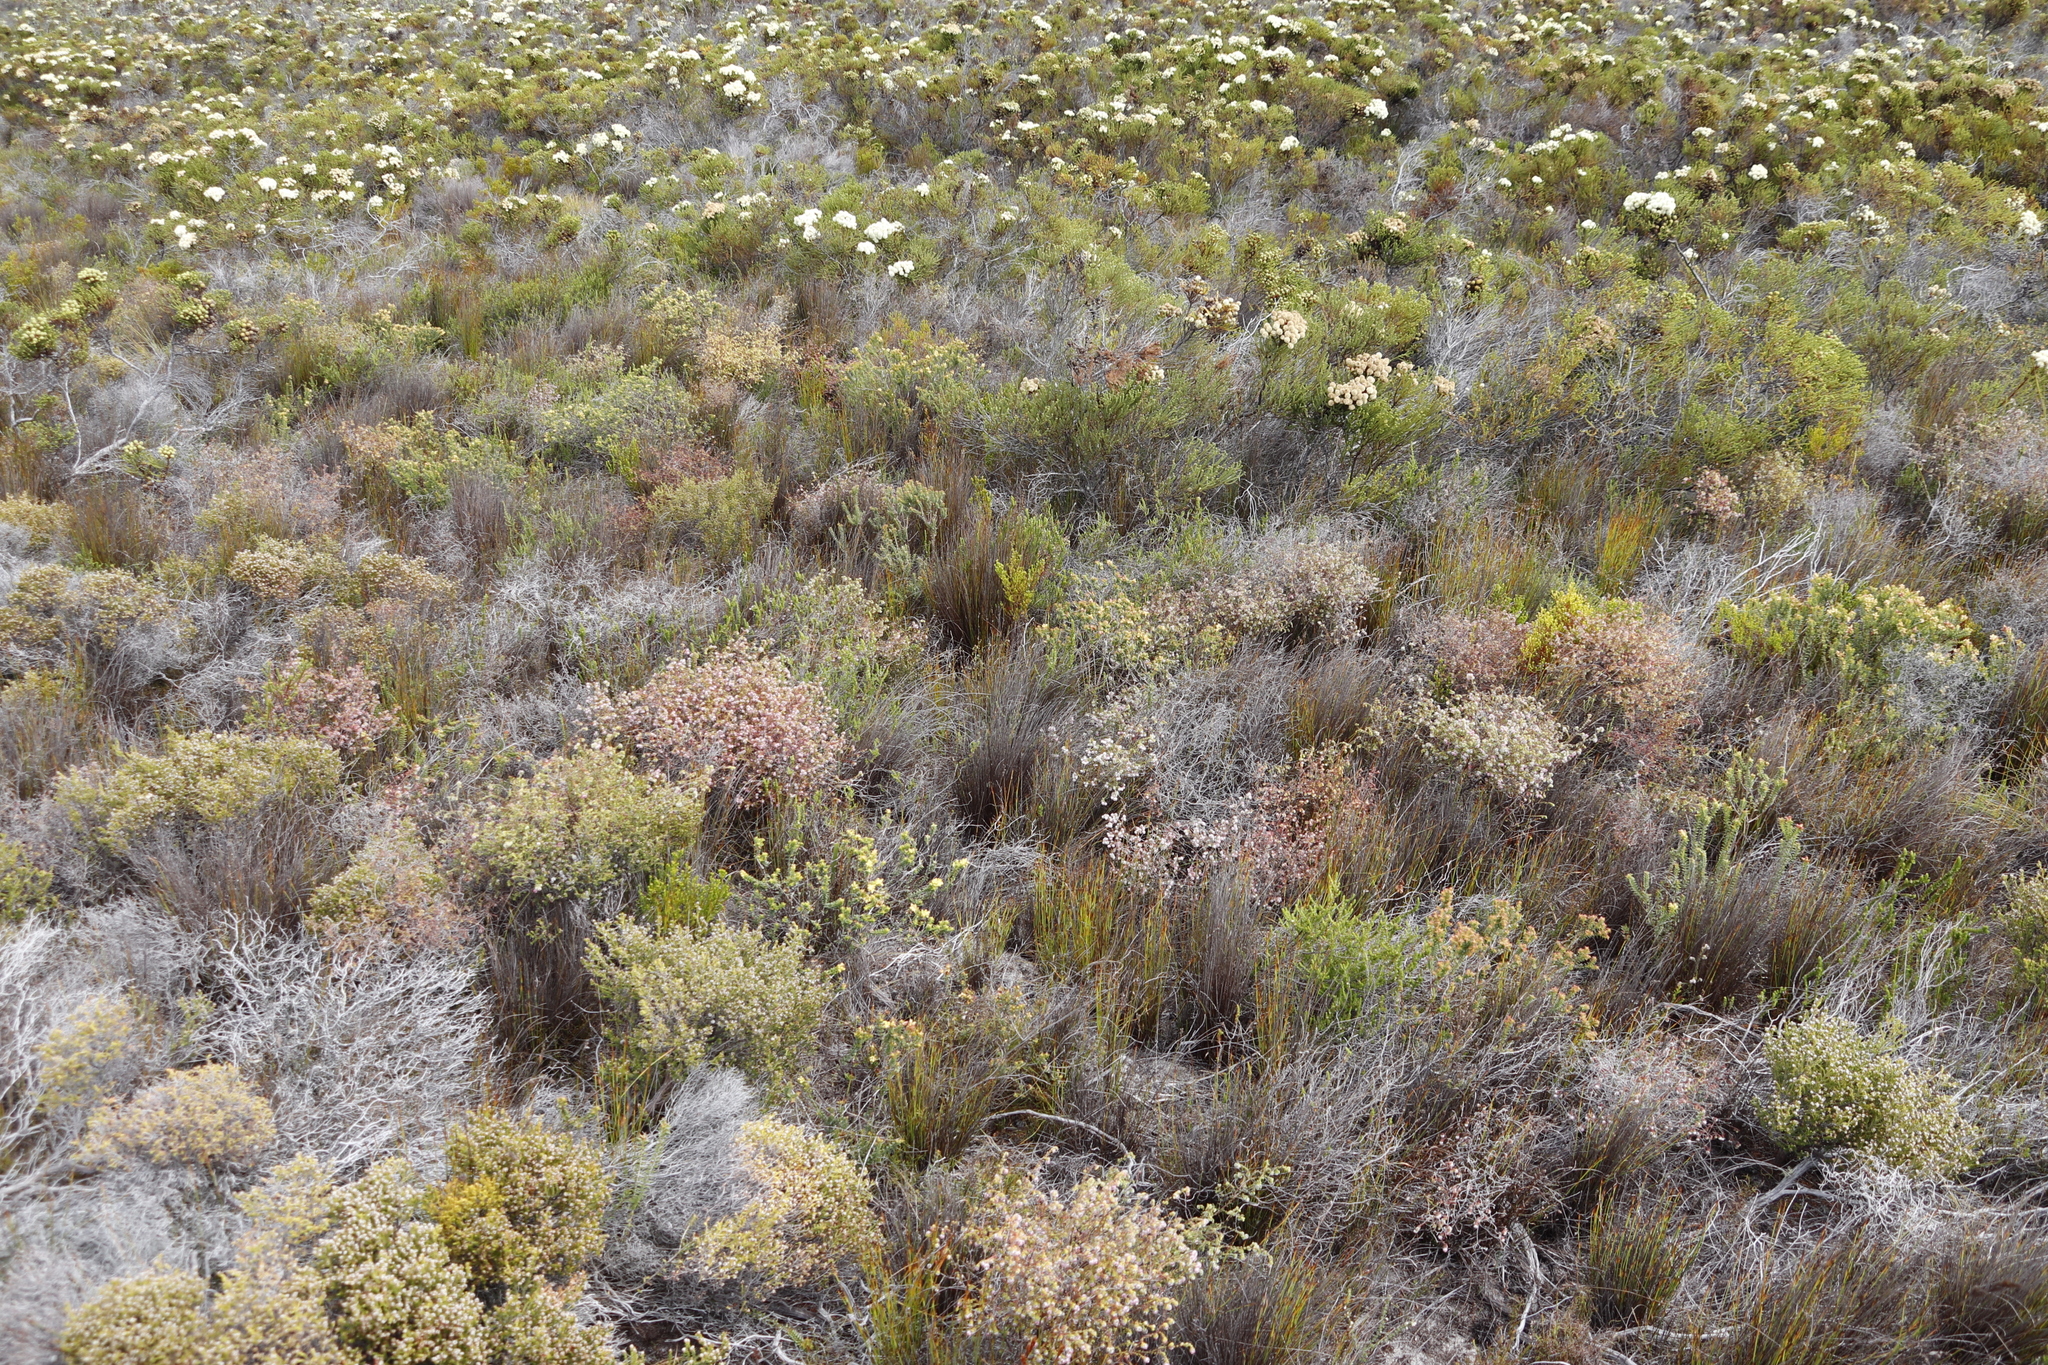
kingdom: Plantae
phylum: Tracheophyta
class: Magnoliopsida
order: Ericales
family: Ericaceae
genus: Erica
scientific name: Erica bruniades
